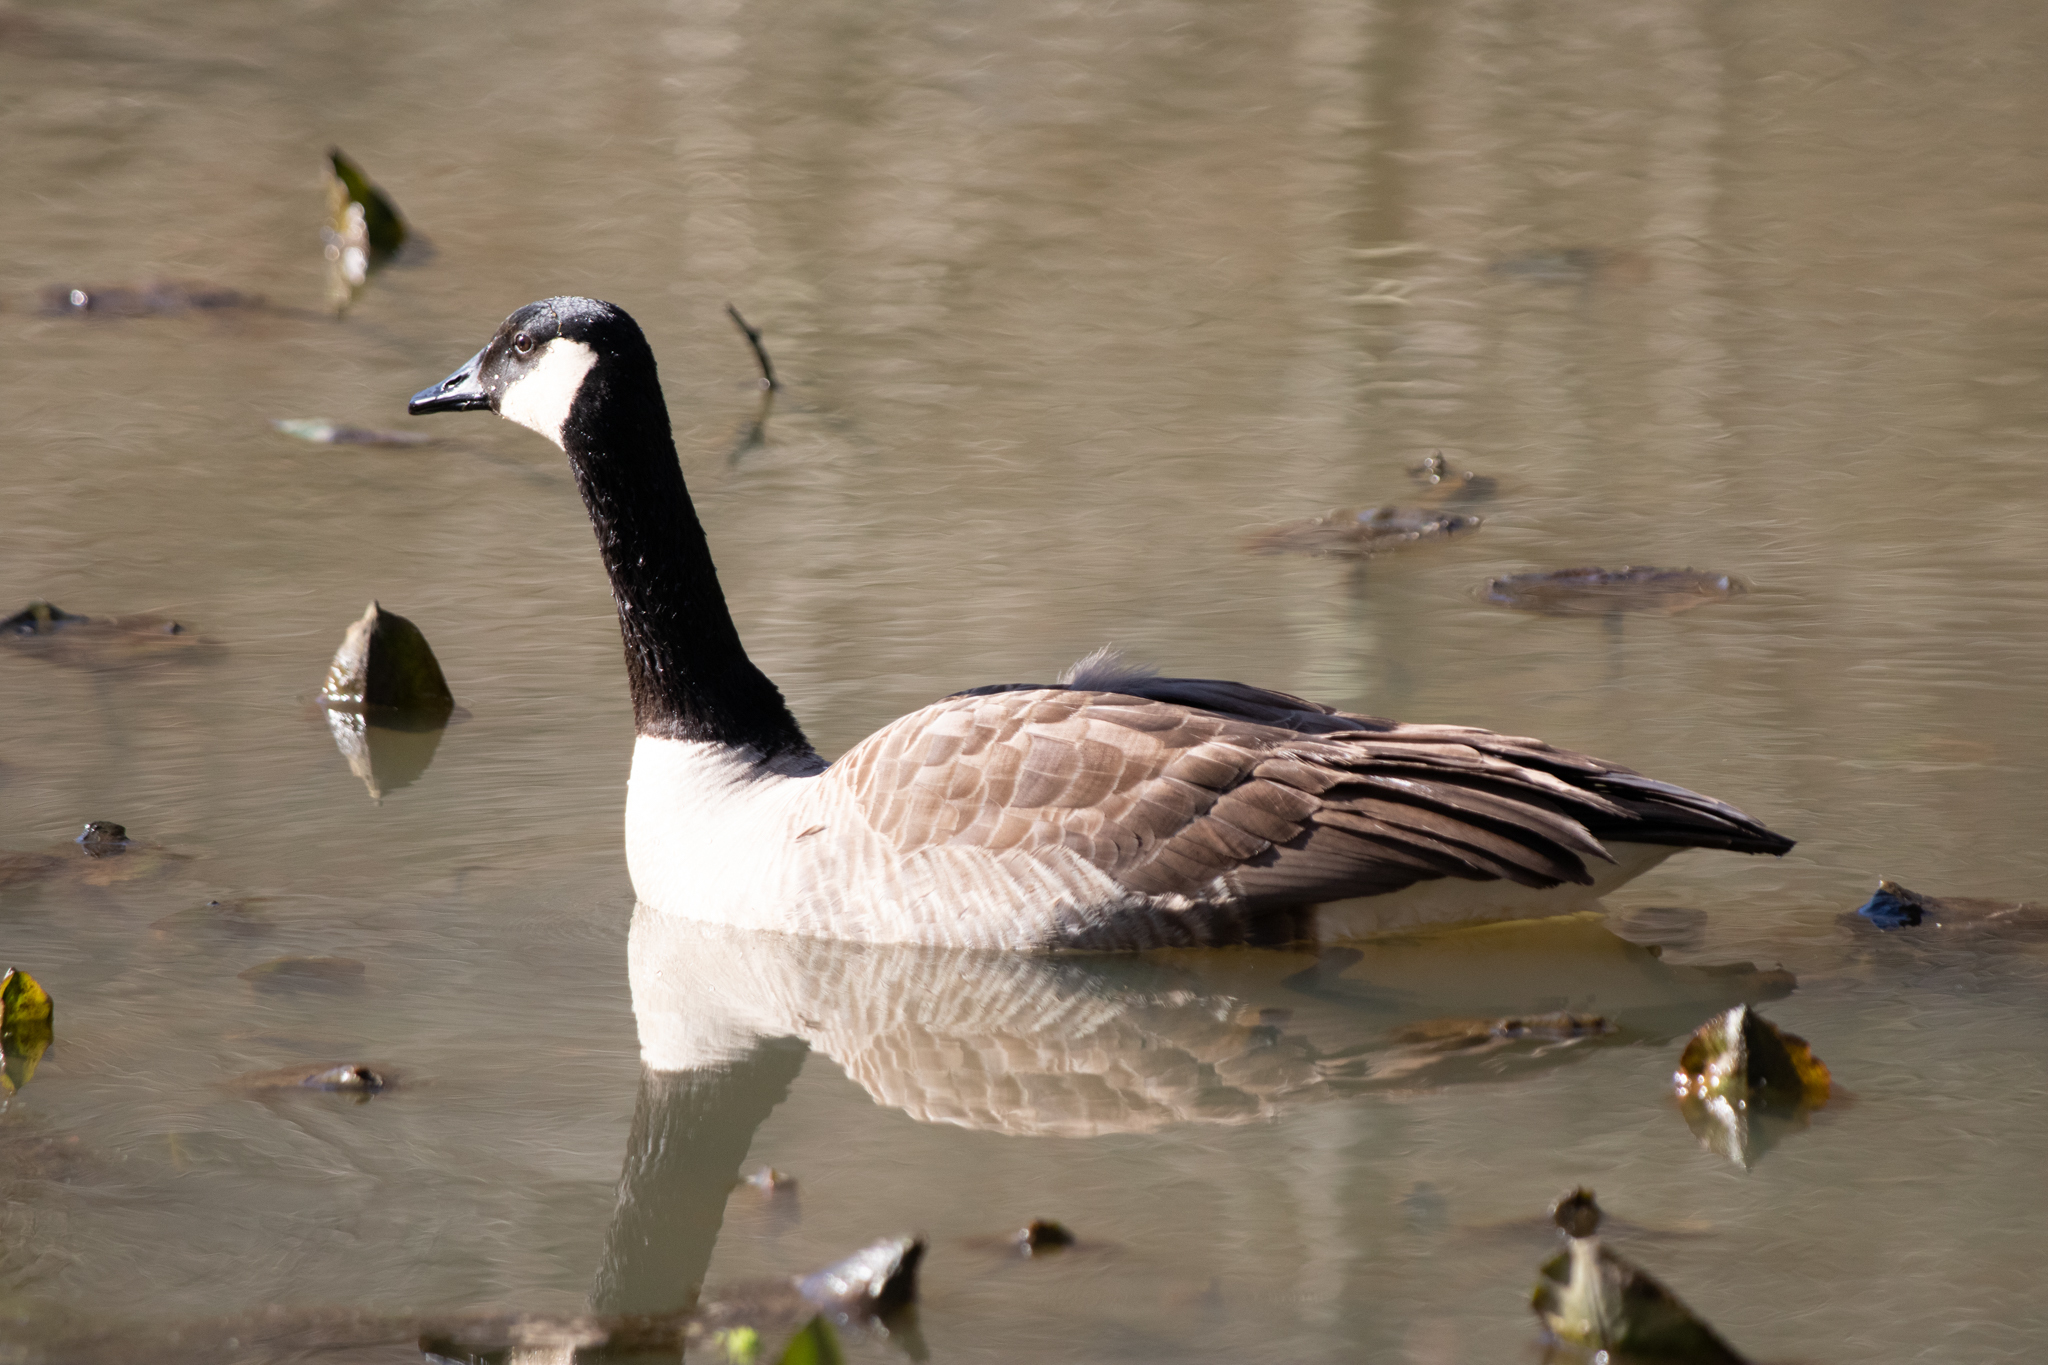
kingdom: Animalia
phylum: Chordata
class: Aves
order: Anseriformes
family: Anatidae
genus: Branta
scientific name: Branta canadensis
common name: Canada goose
